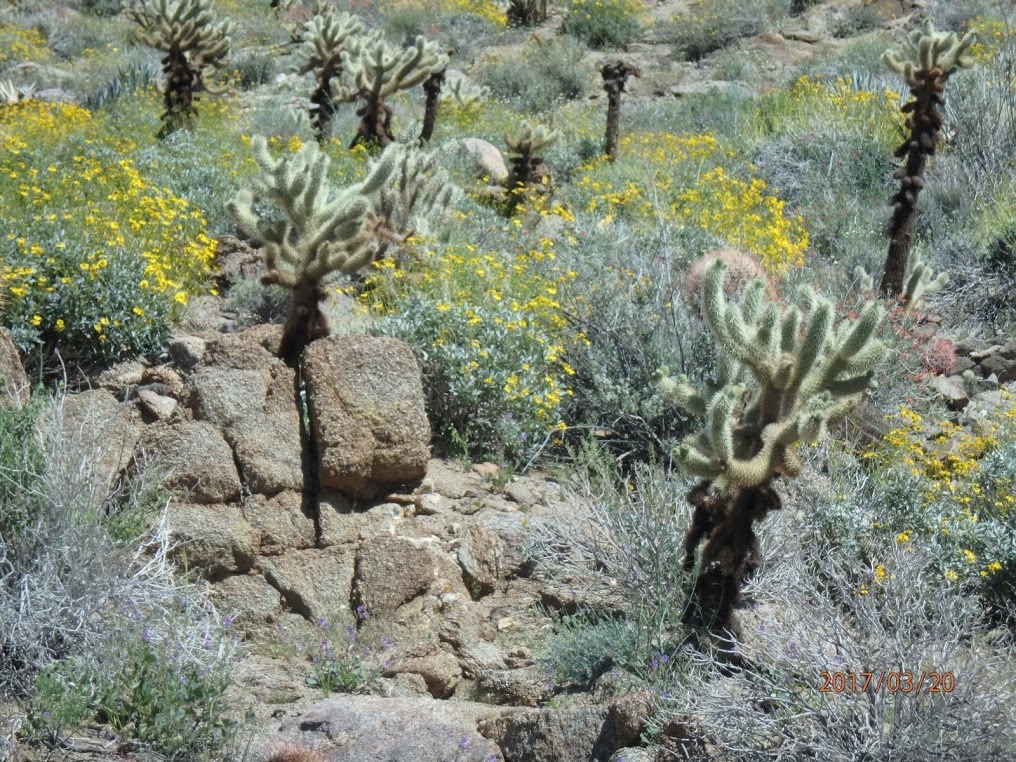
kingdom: Plantae
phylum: Tracheophyta
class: Magnoliopsida
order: Caryophyllales
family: Cactaceae
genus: Cylindropuntia
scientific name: Cylindropuntia fosbergii
